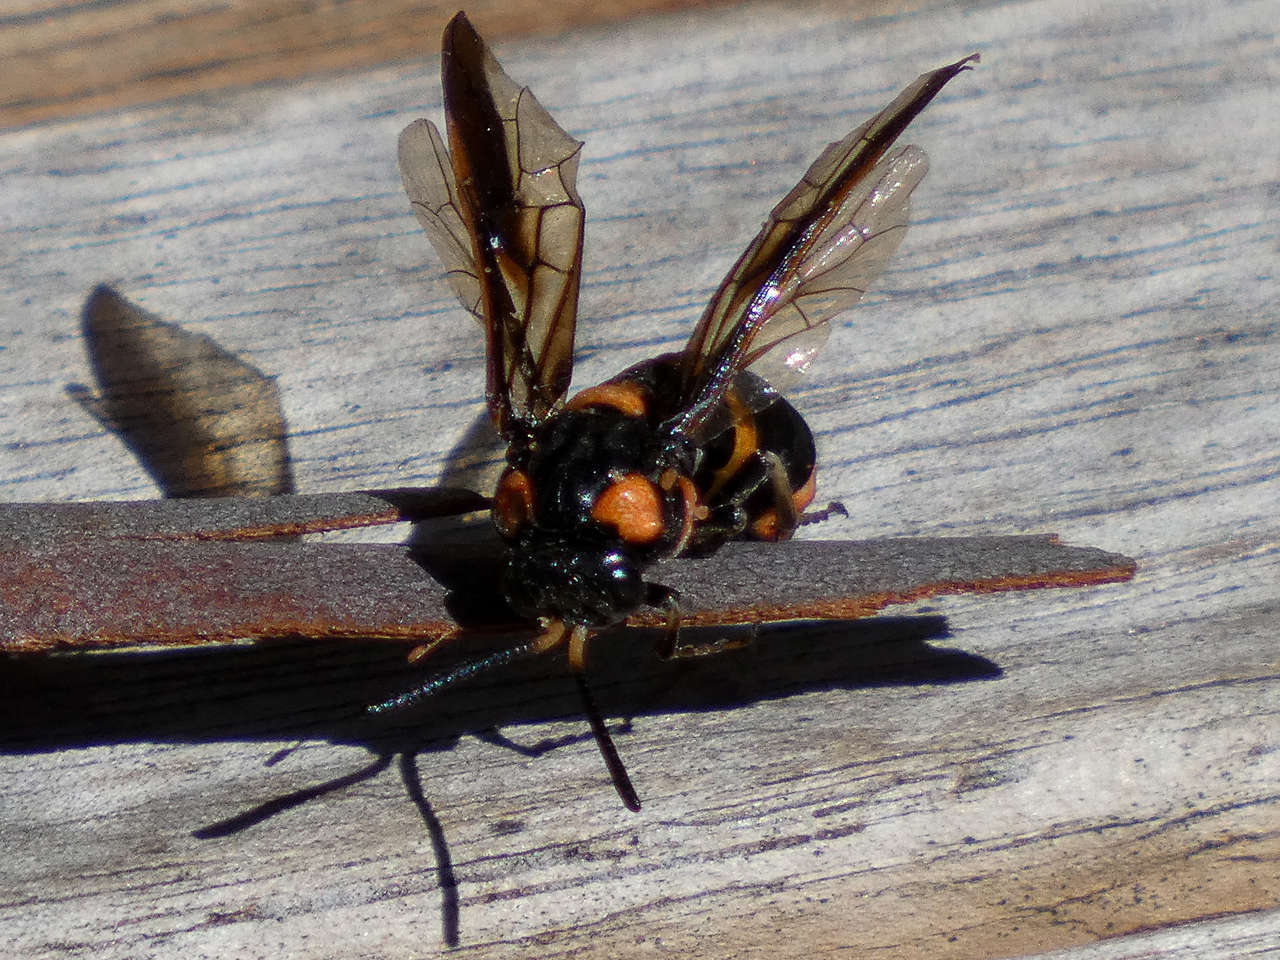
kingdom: Animalia
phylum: Arthropoda
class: Insecta
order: Hymenoptera
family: Pergidae
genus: Pterygophorus
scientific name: Pterygophorus
